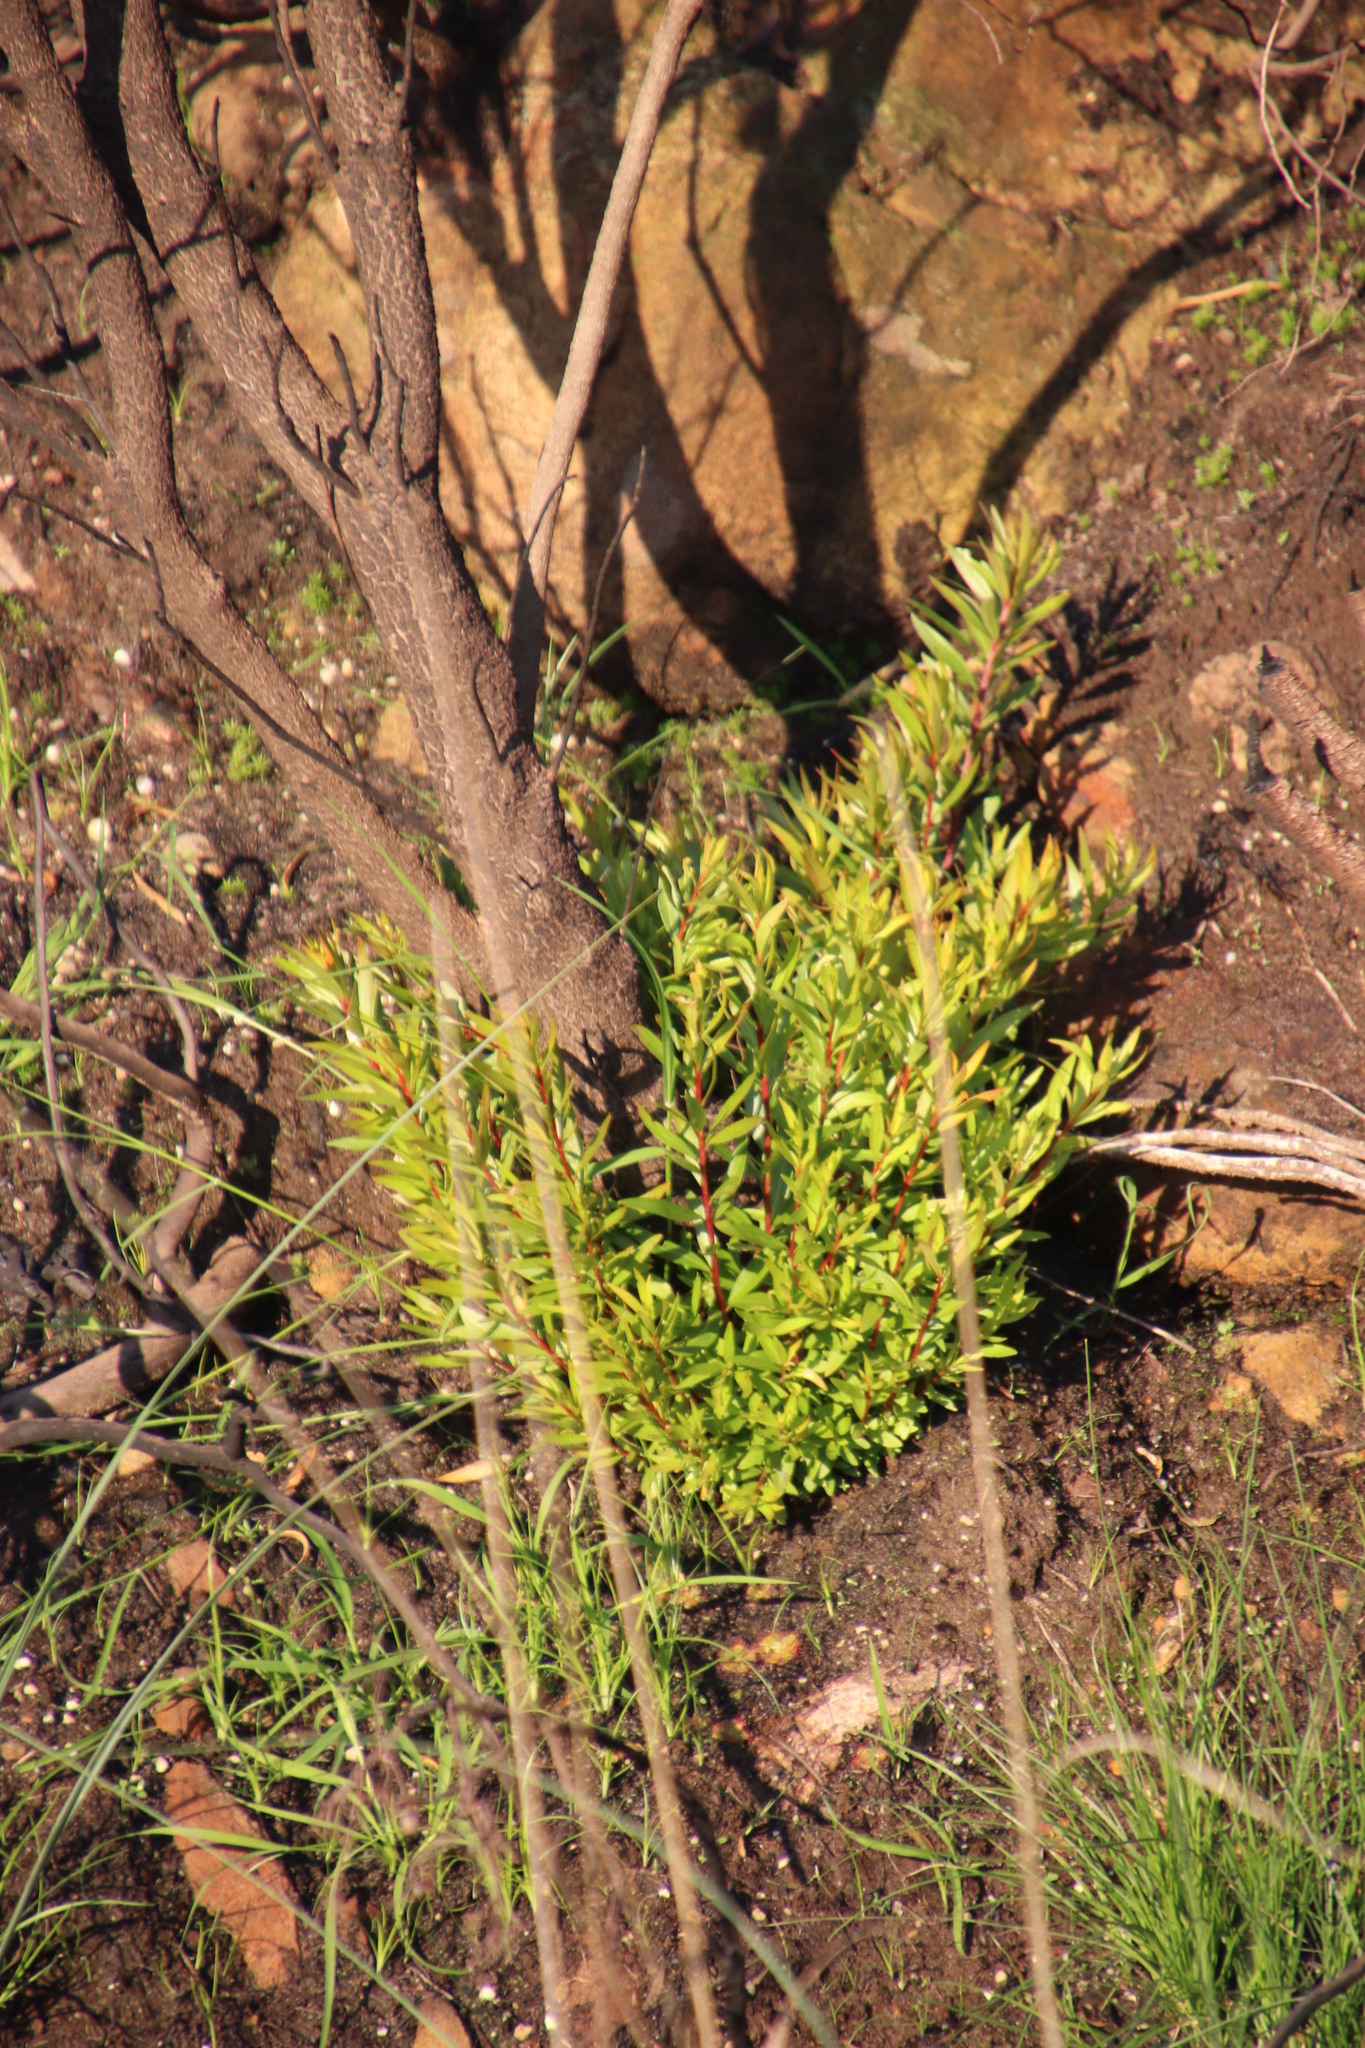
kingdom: Plantae
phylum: Tracheophyta
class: Magnoliopsida
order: Myrtales
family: Myrtaceae
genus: Callistemon
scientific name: Callistemon lanceolatus
